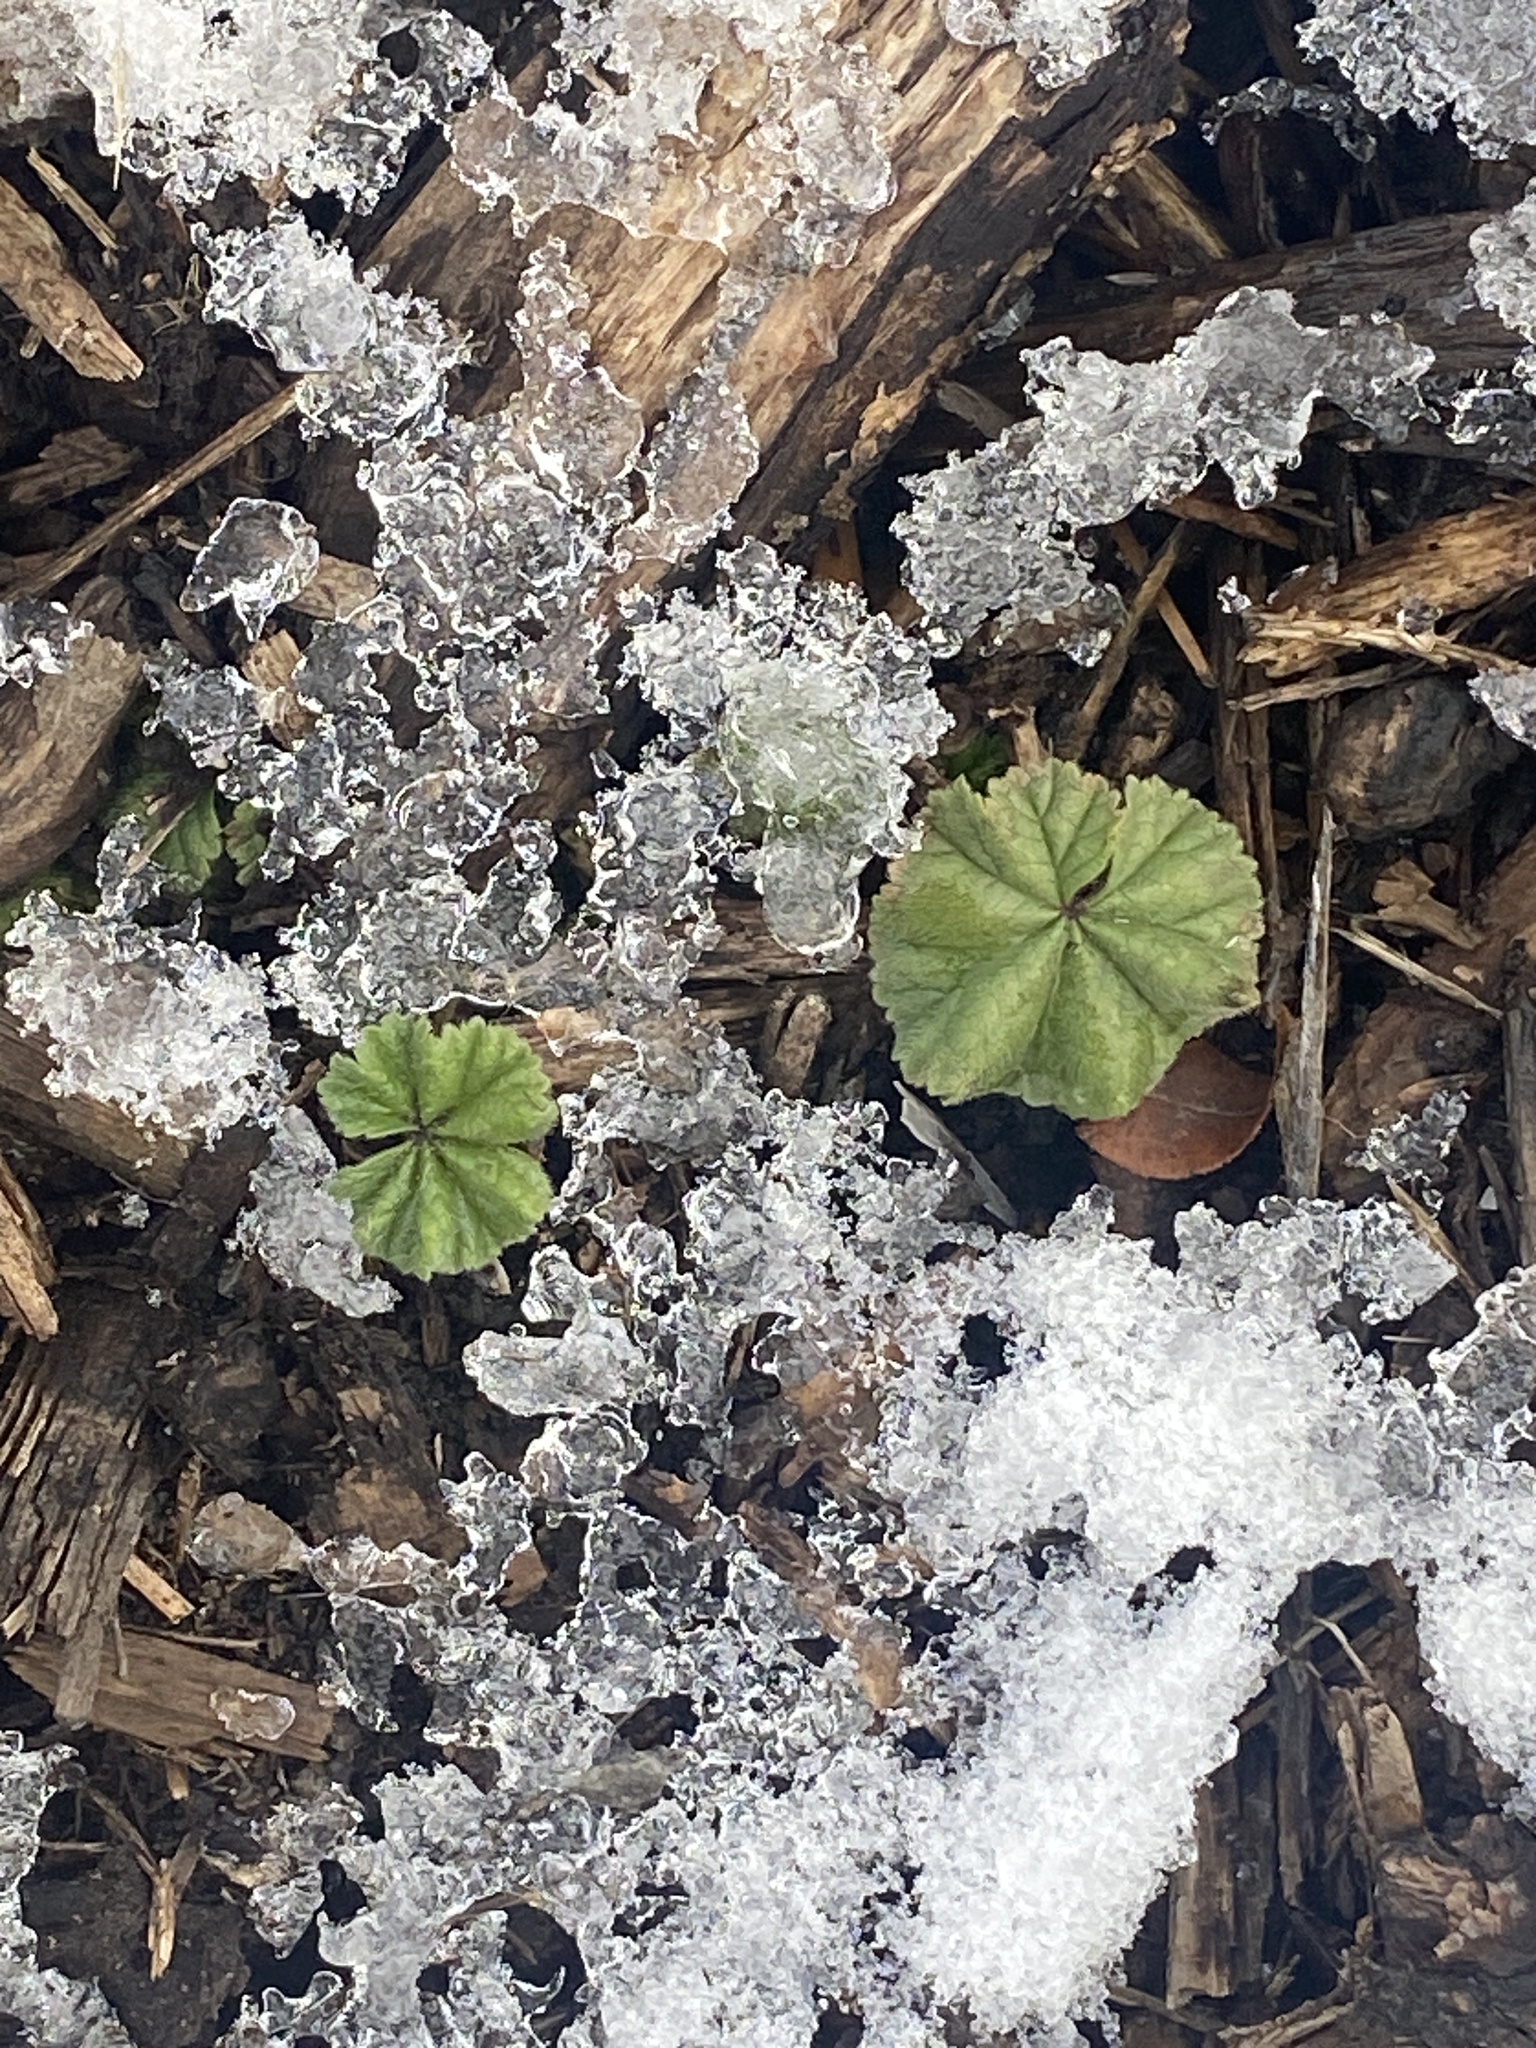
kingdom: Plantae
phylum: Tracheophyta
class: Magnoliopsida
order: Malvales
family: Malvaceae
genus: Malva
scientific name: Malva neglecta
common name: Common mallow
